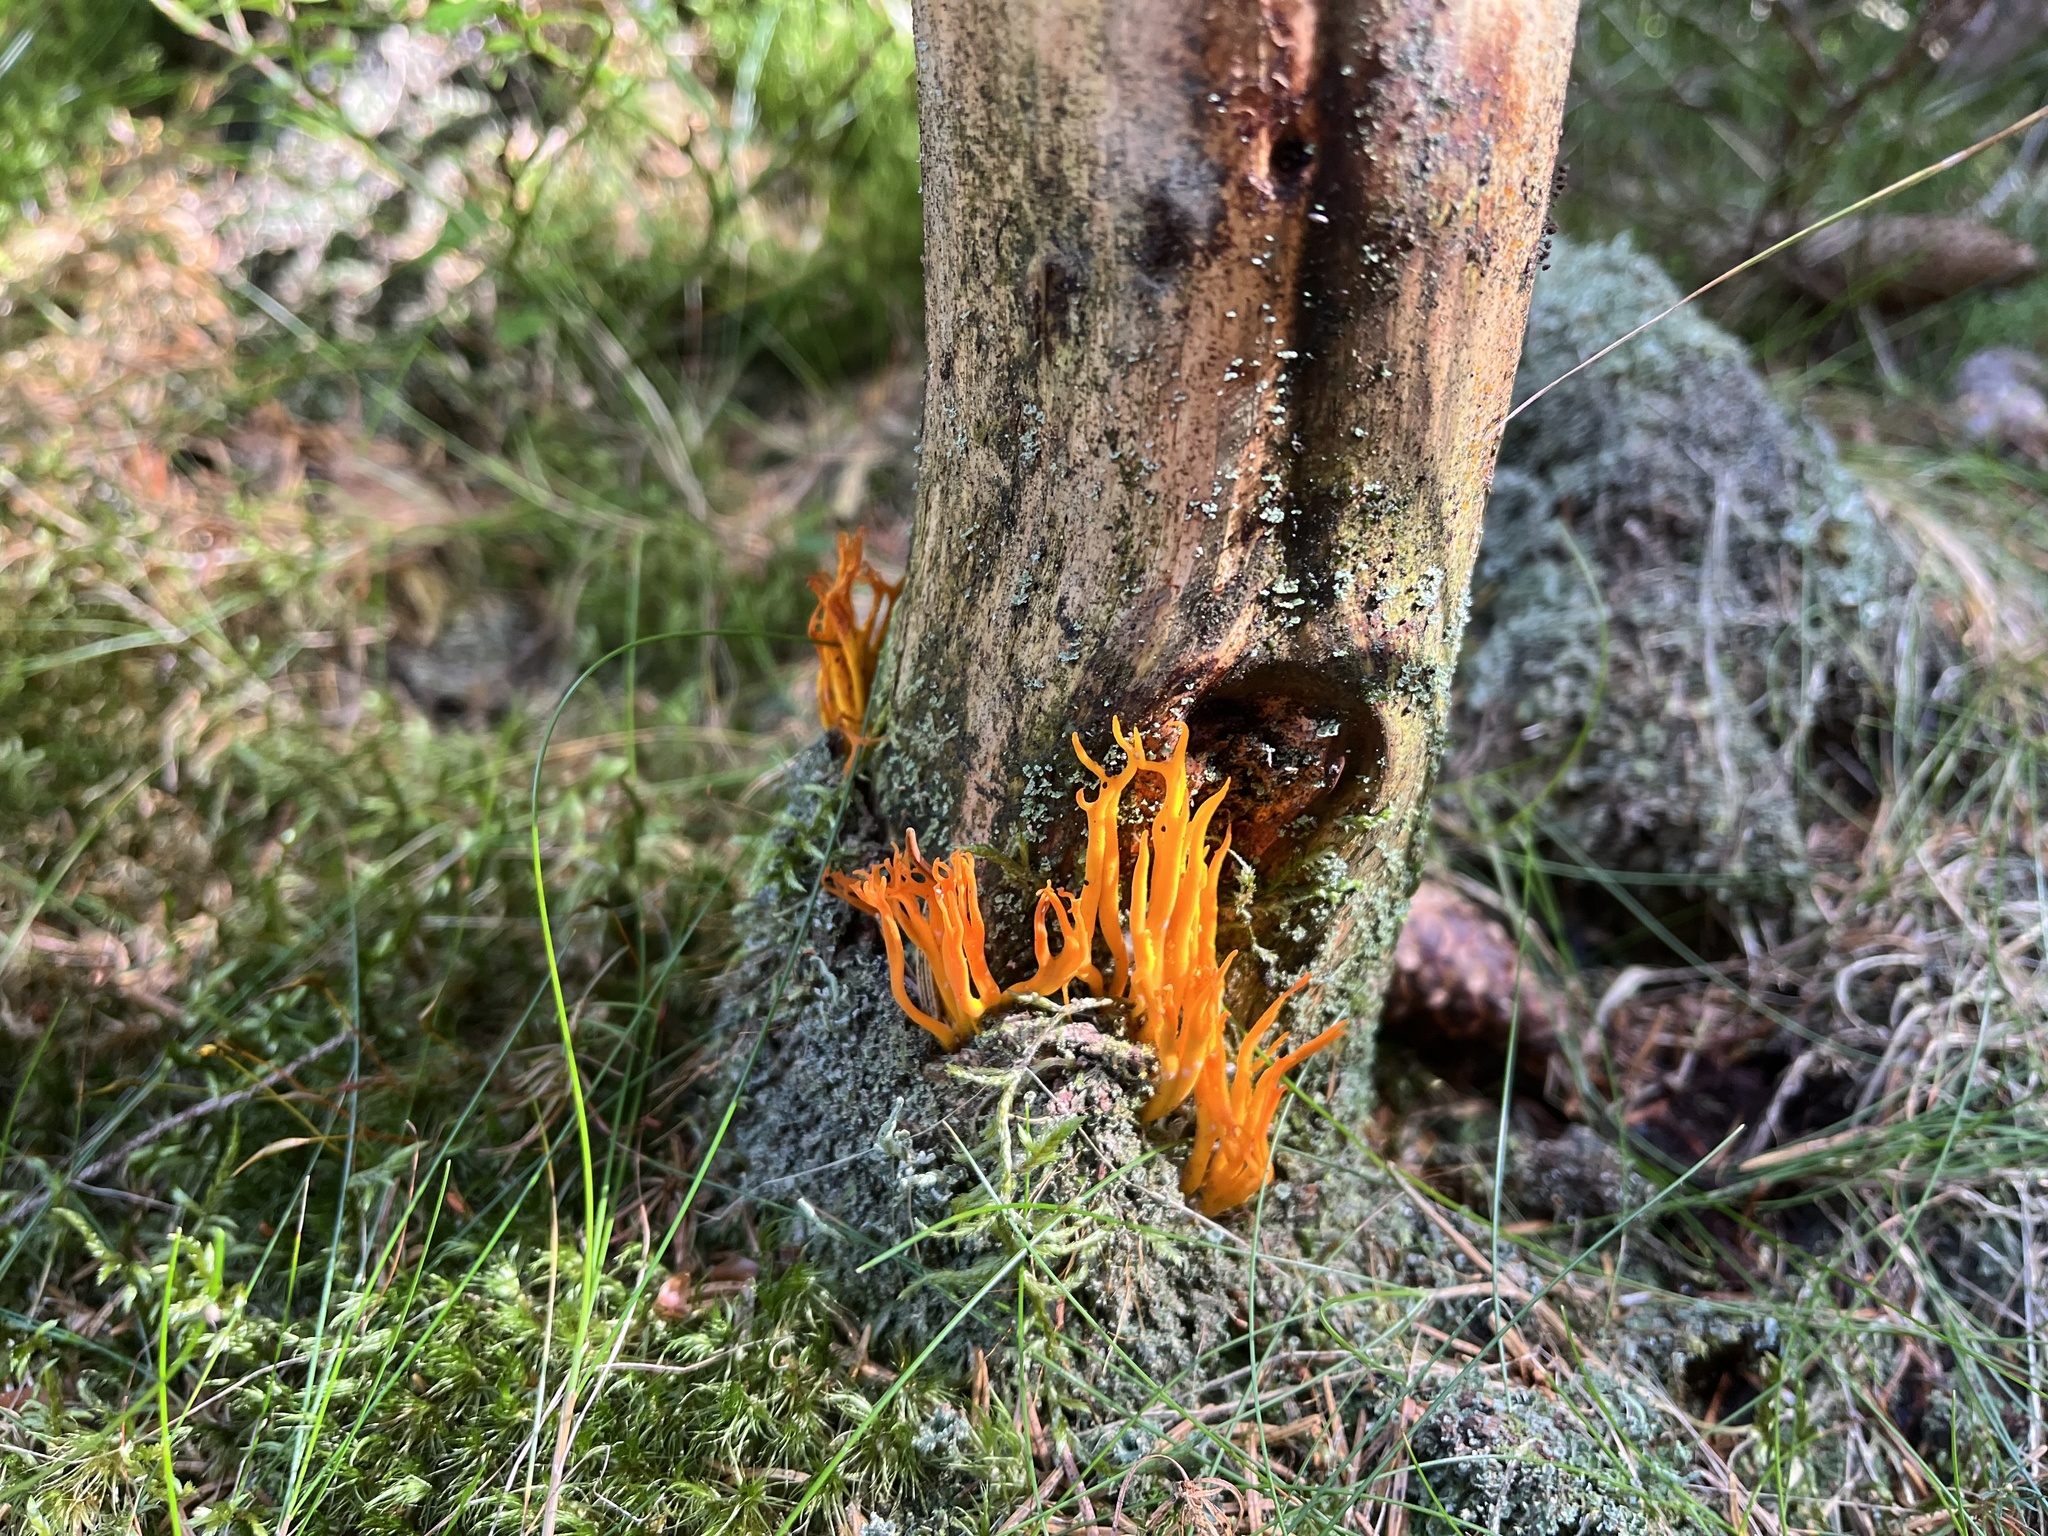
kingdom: Fungi
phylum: Basidiomycota
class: Dacrymycetes
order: Dacrymycetales
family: Dacrymycetaceae
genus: Calocera
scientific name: Calocera viscosa
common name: Yellow stagshorn
